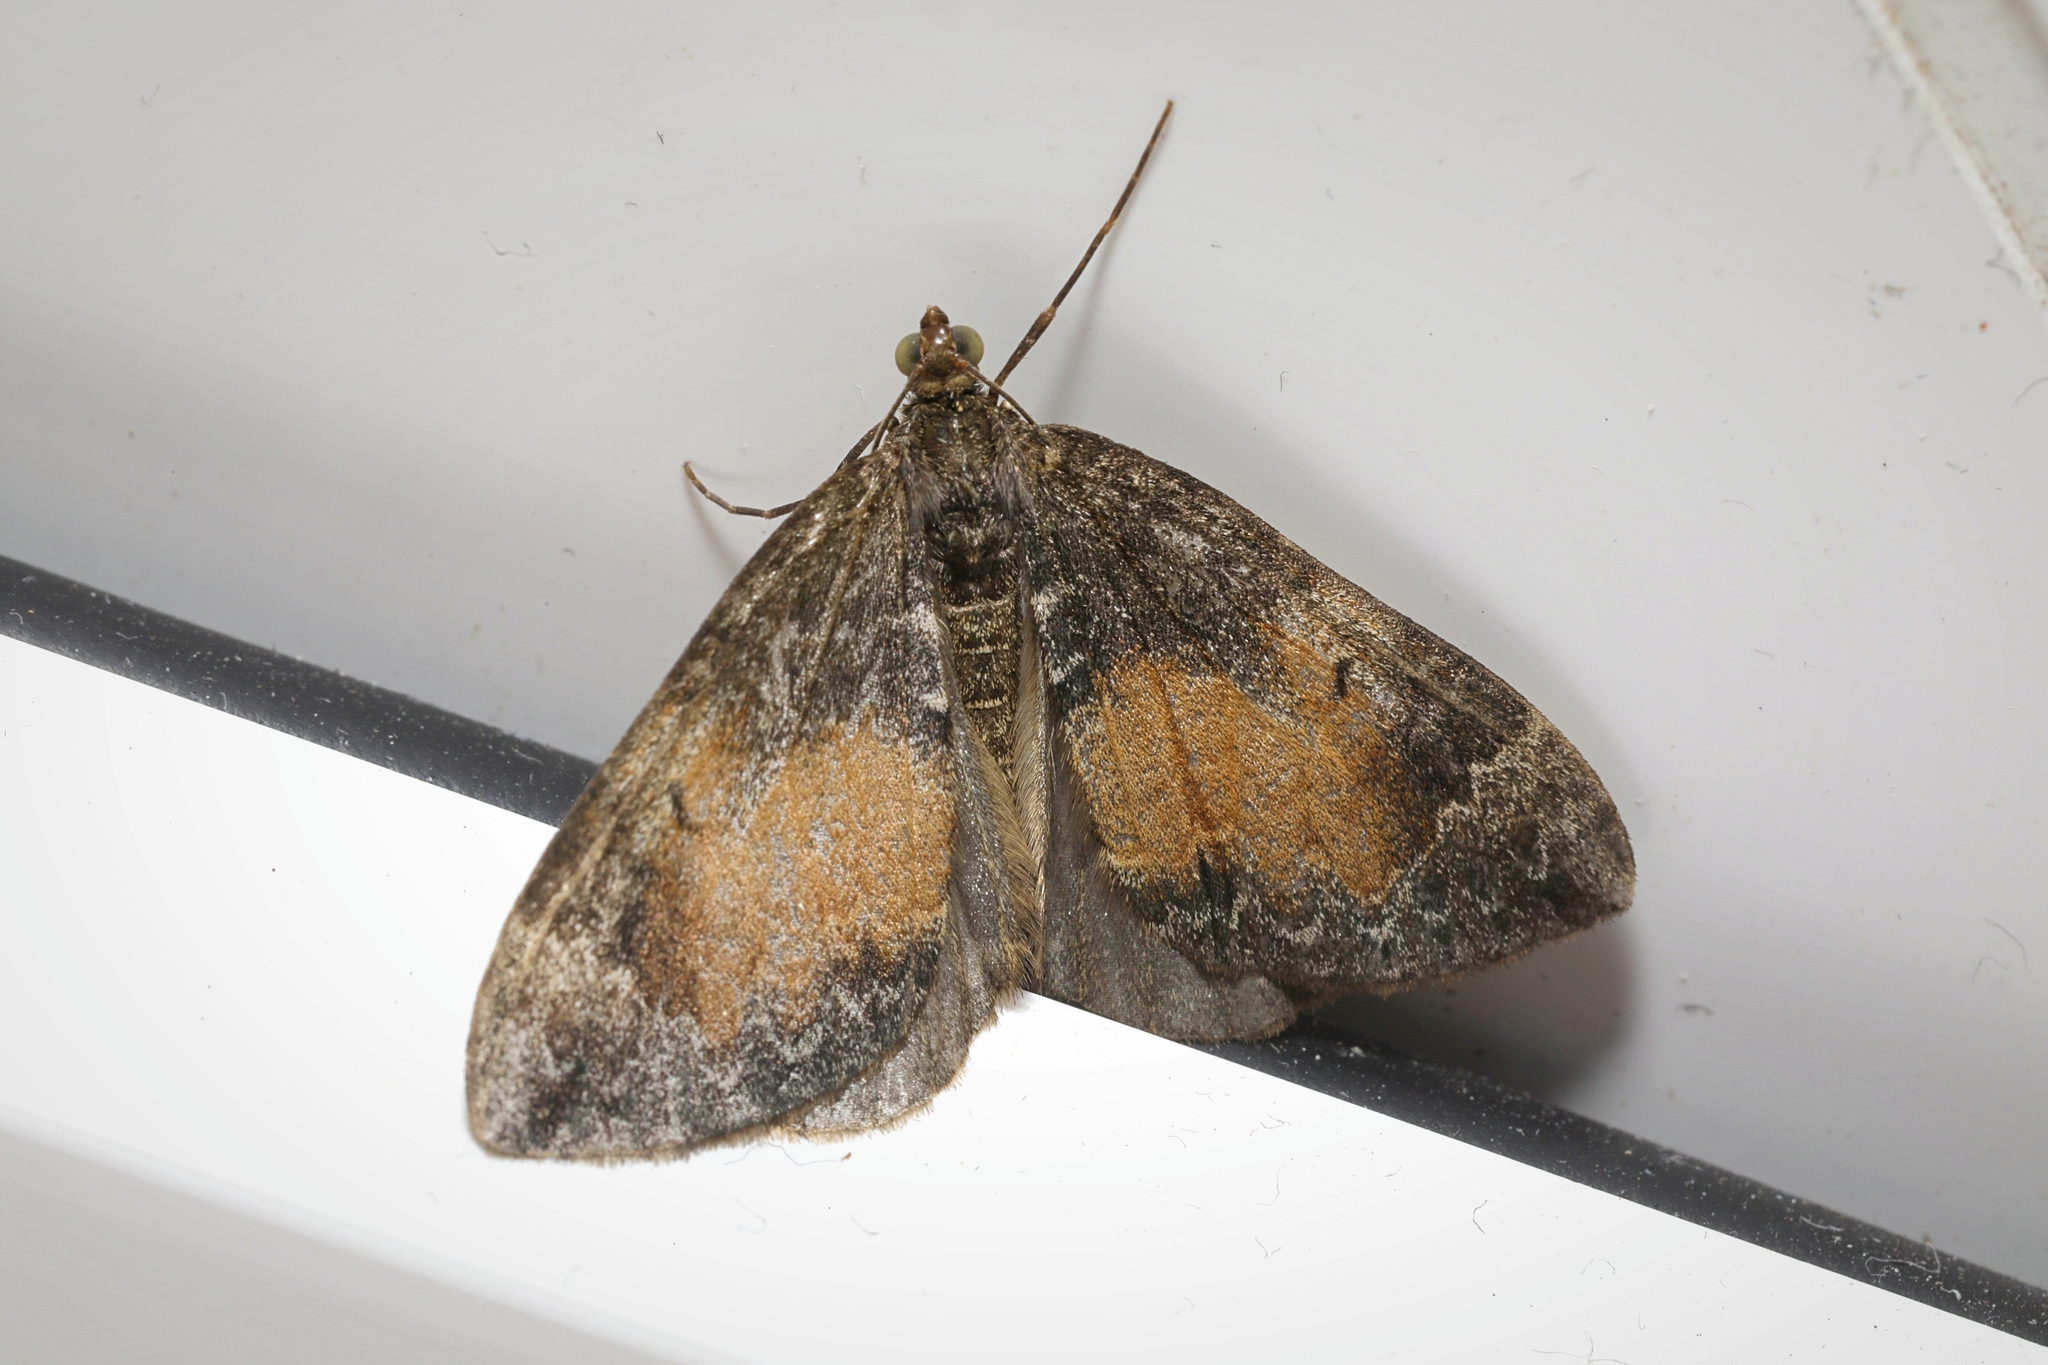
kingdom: Animalia
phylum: Arthropoda
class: Insecta
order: Lepidoptera
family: Geometridae
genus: Dysstroma
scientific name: Dysstroma truncata
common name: Common marbled carpet
